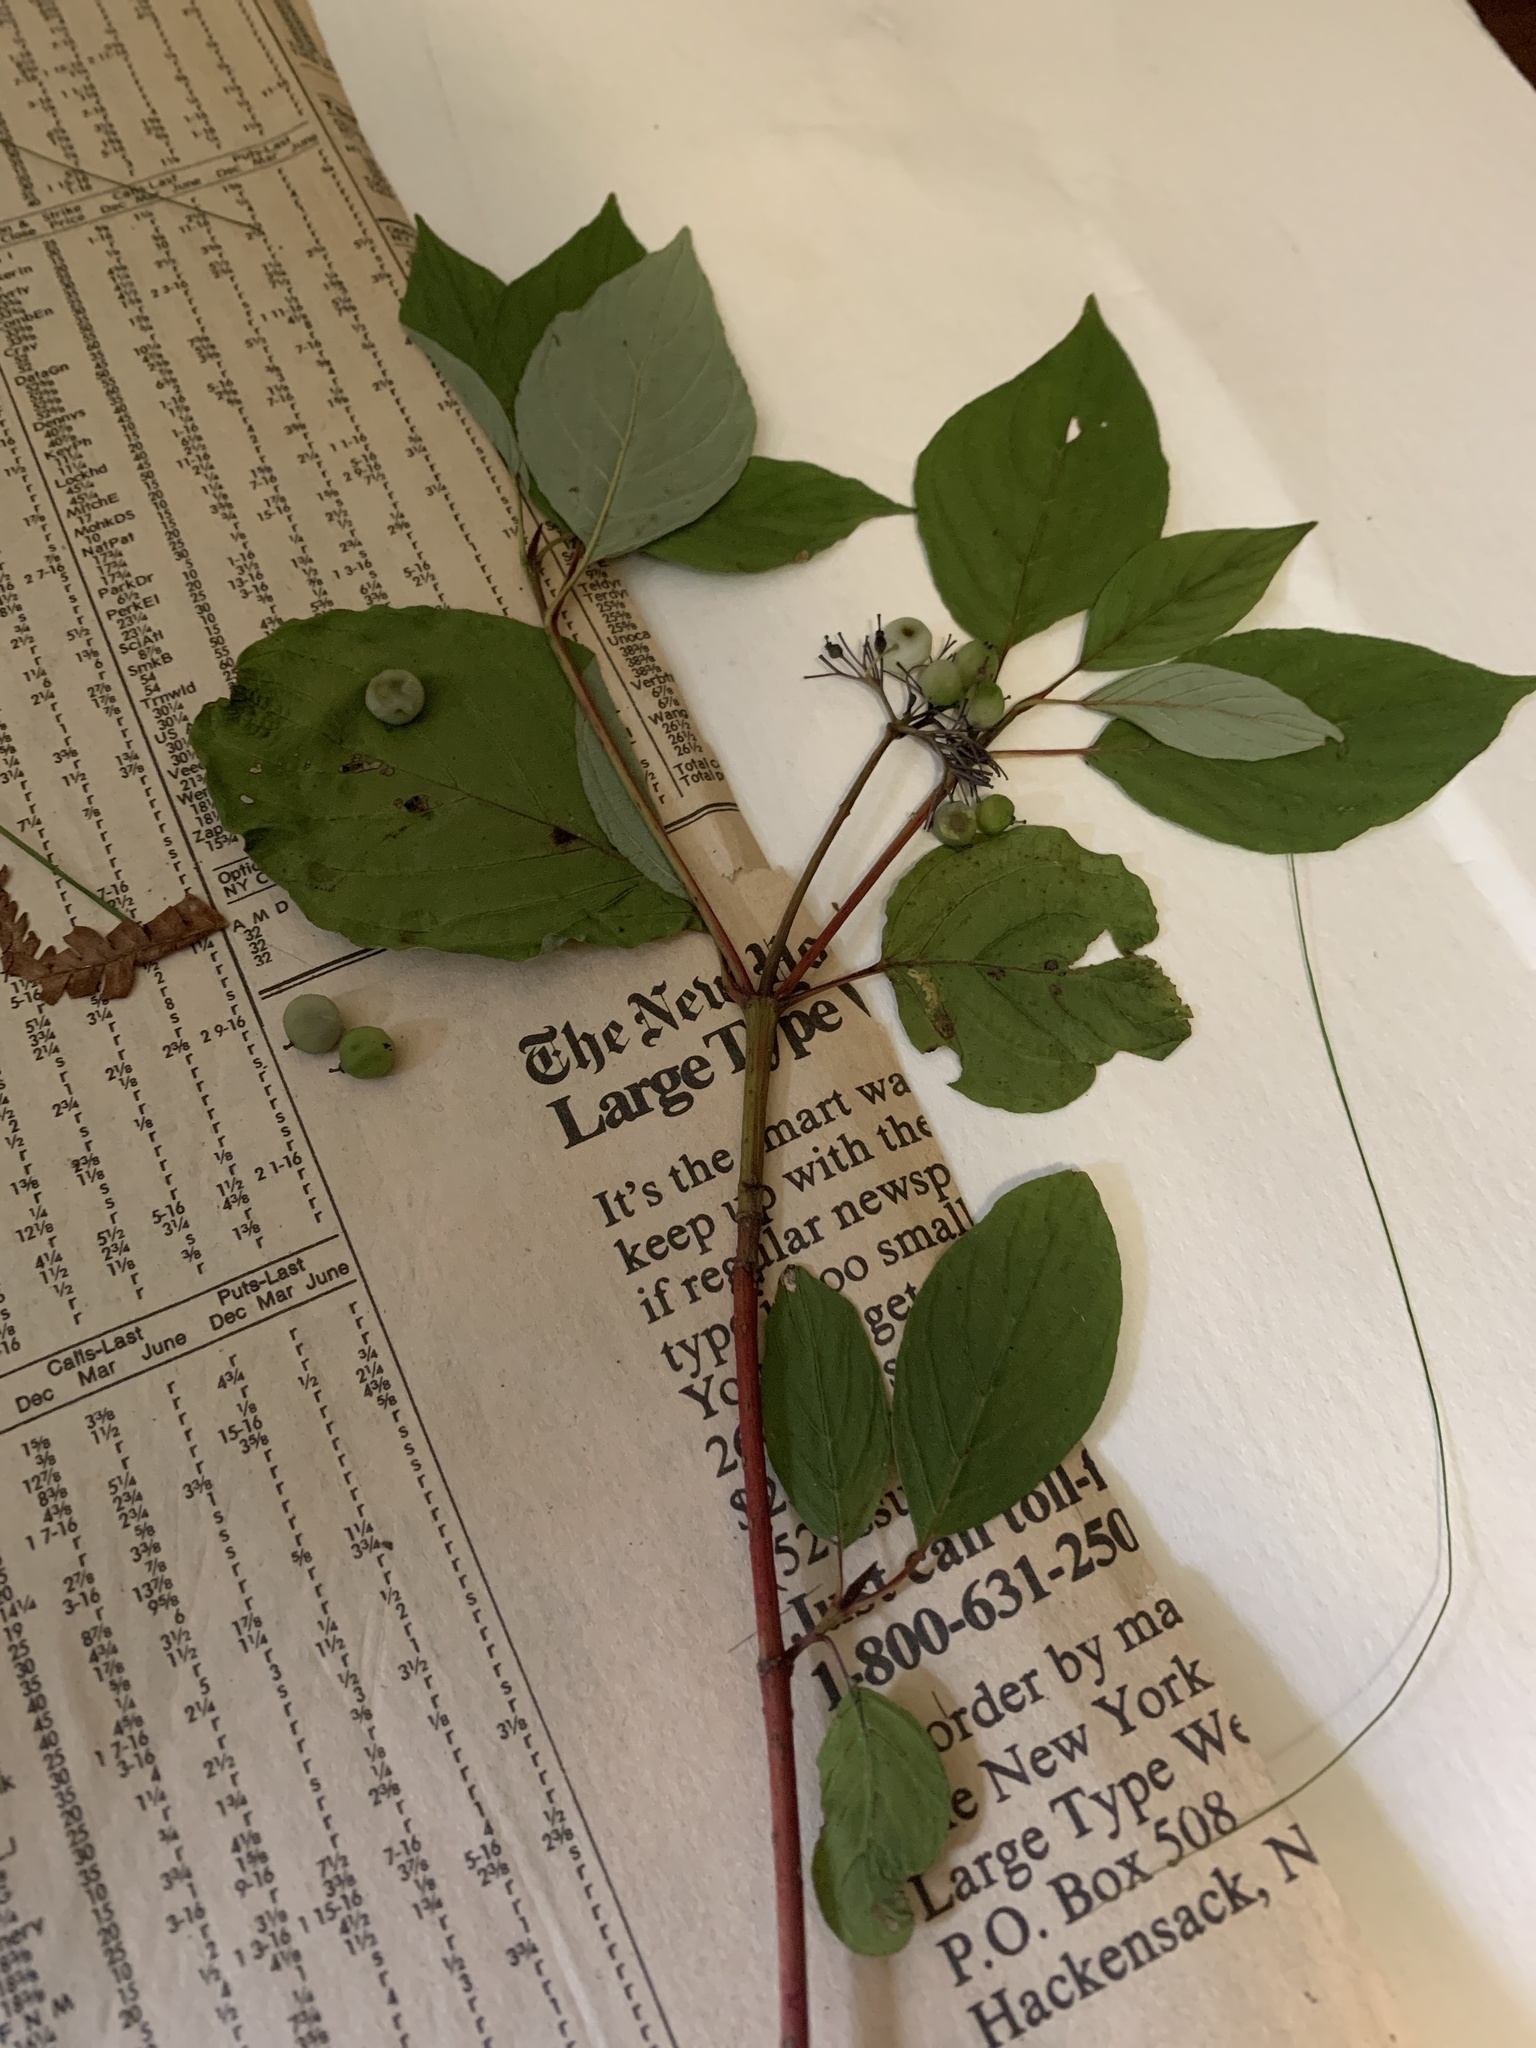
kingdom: Plantae
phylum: Tracheophyta
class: Magnoliopsida
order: Cornales
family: Cornaceae
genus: Cornus
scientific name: Cornus sericea
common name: Red-osier dogwood
